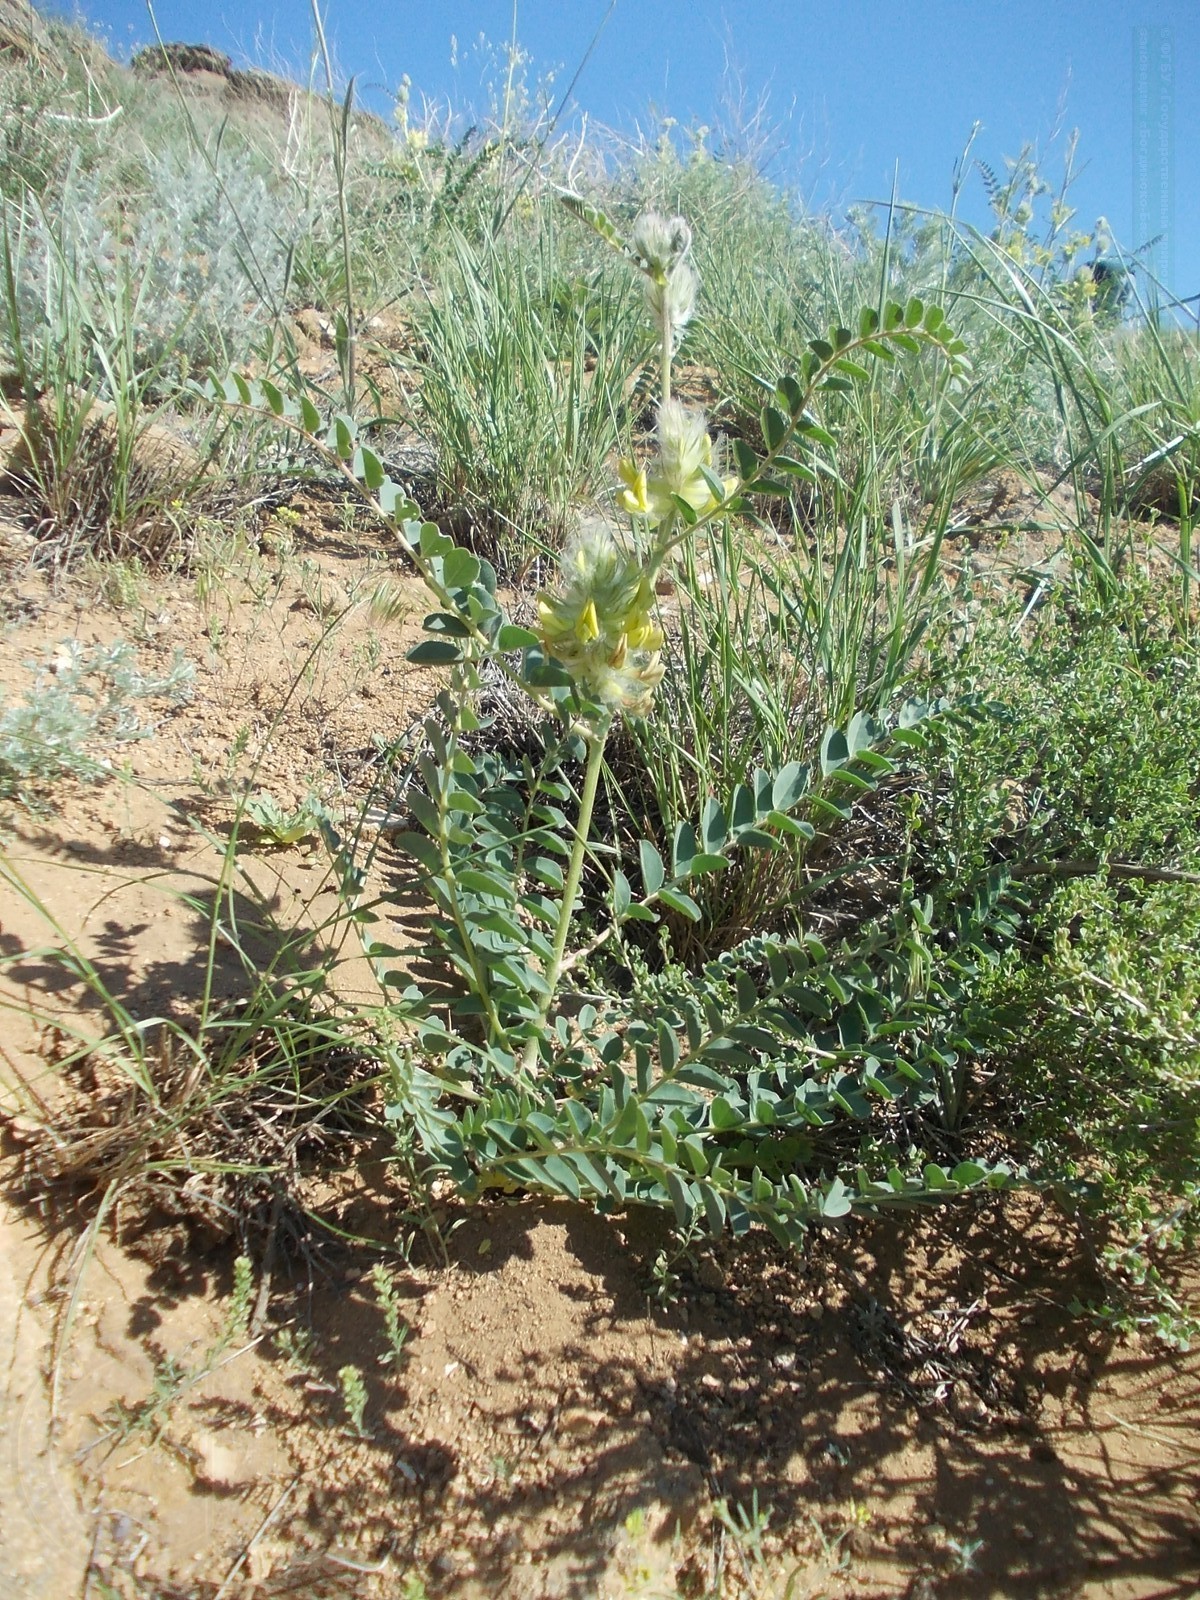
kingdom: Plantae
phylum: Tracheophyta
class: Magnoliopsida
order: Fabales
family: Fabaceae
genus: Astragalus
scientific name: Astragalus vulpinus
